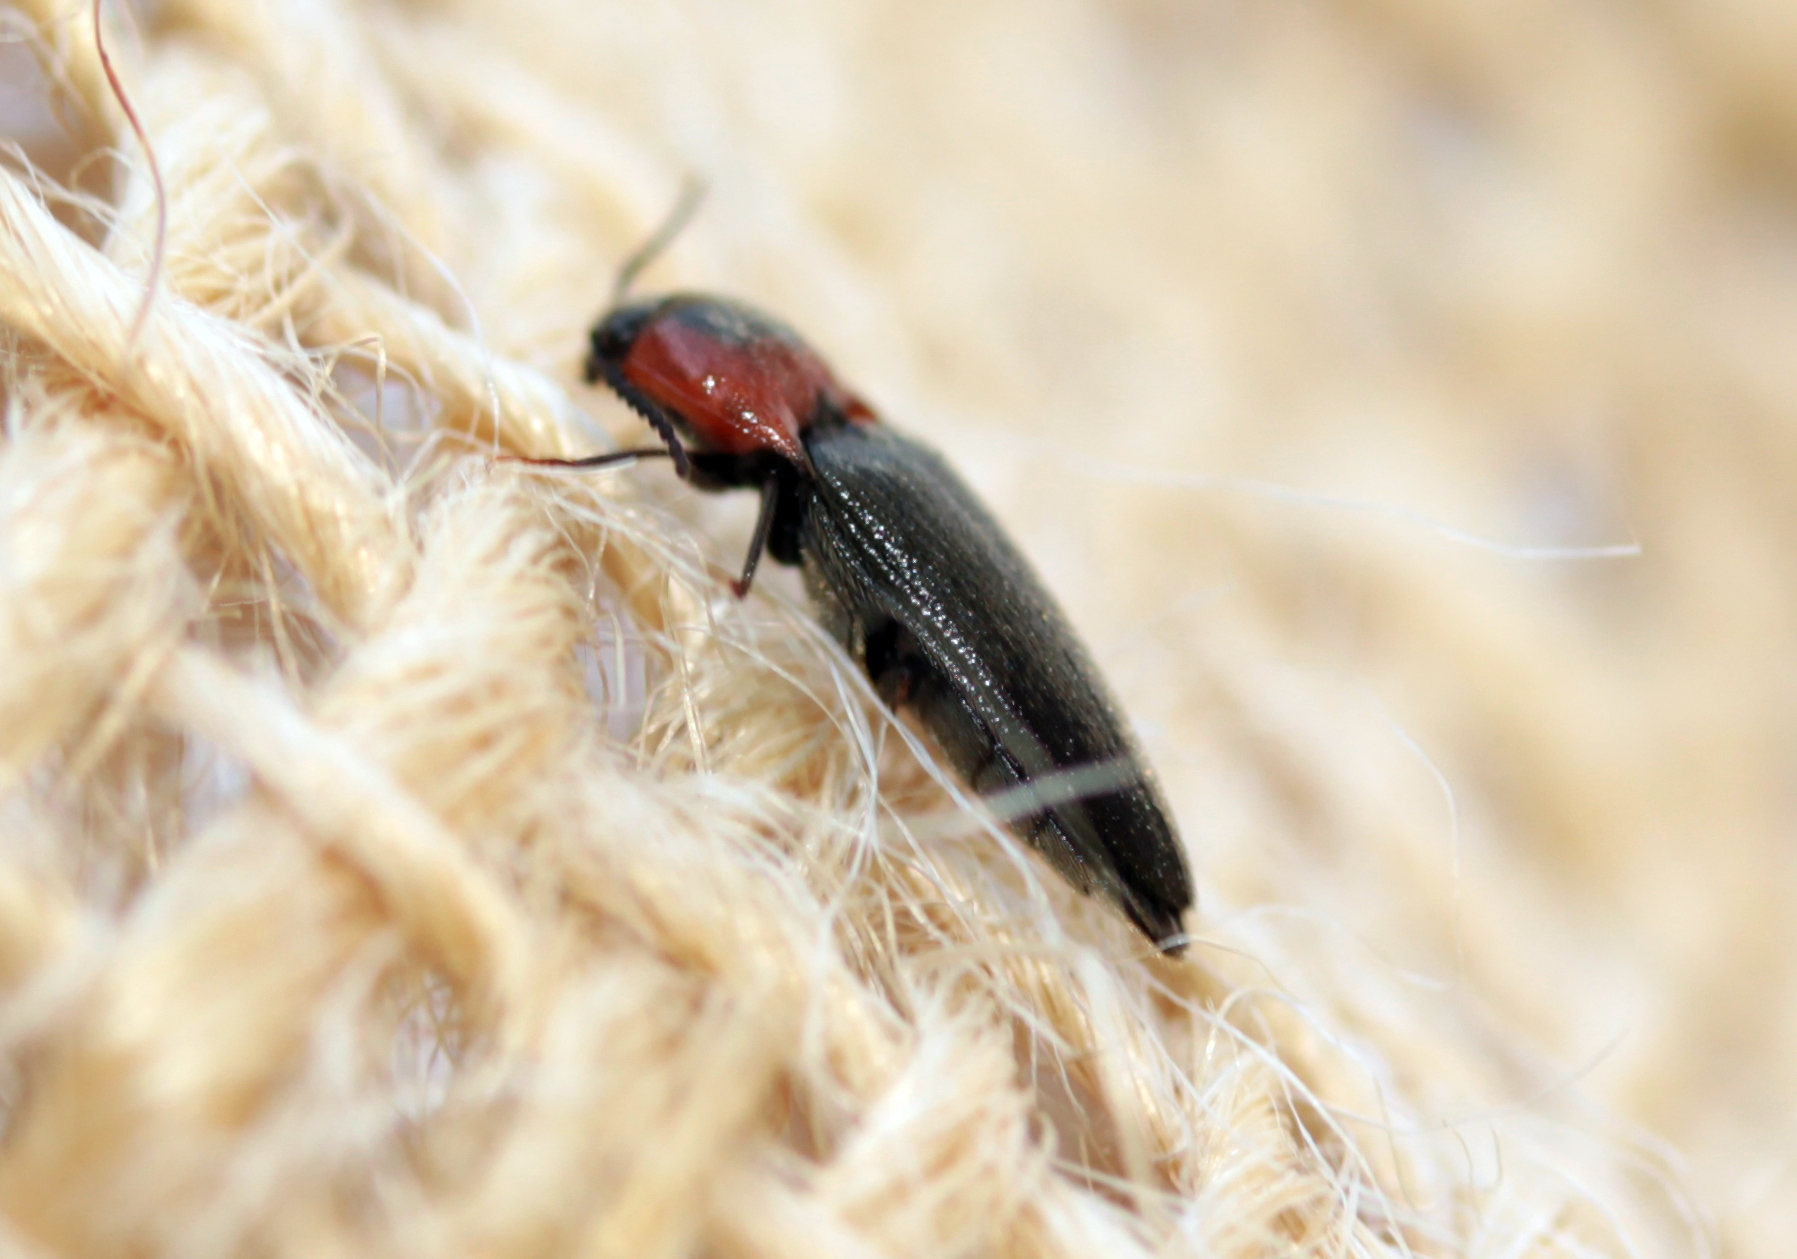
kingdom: Animalia
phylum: Arthropoda
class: Insecta
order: Coleoptera
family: Elateridae
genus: Ampedus
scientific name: Ampedus rubricus
